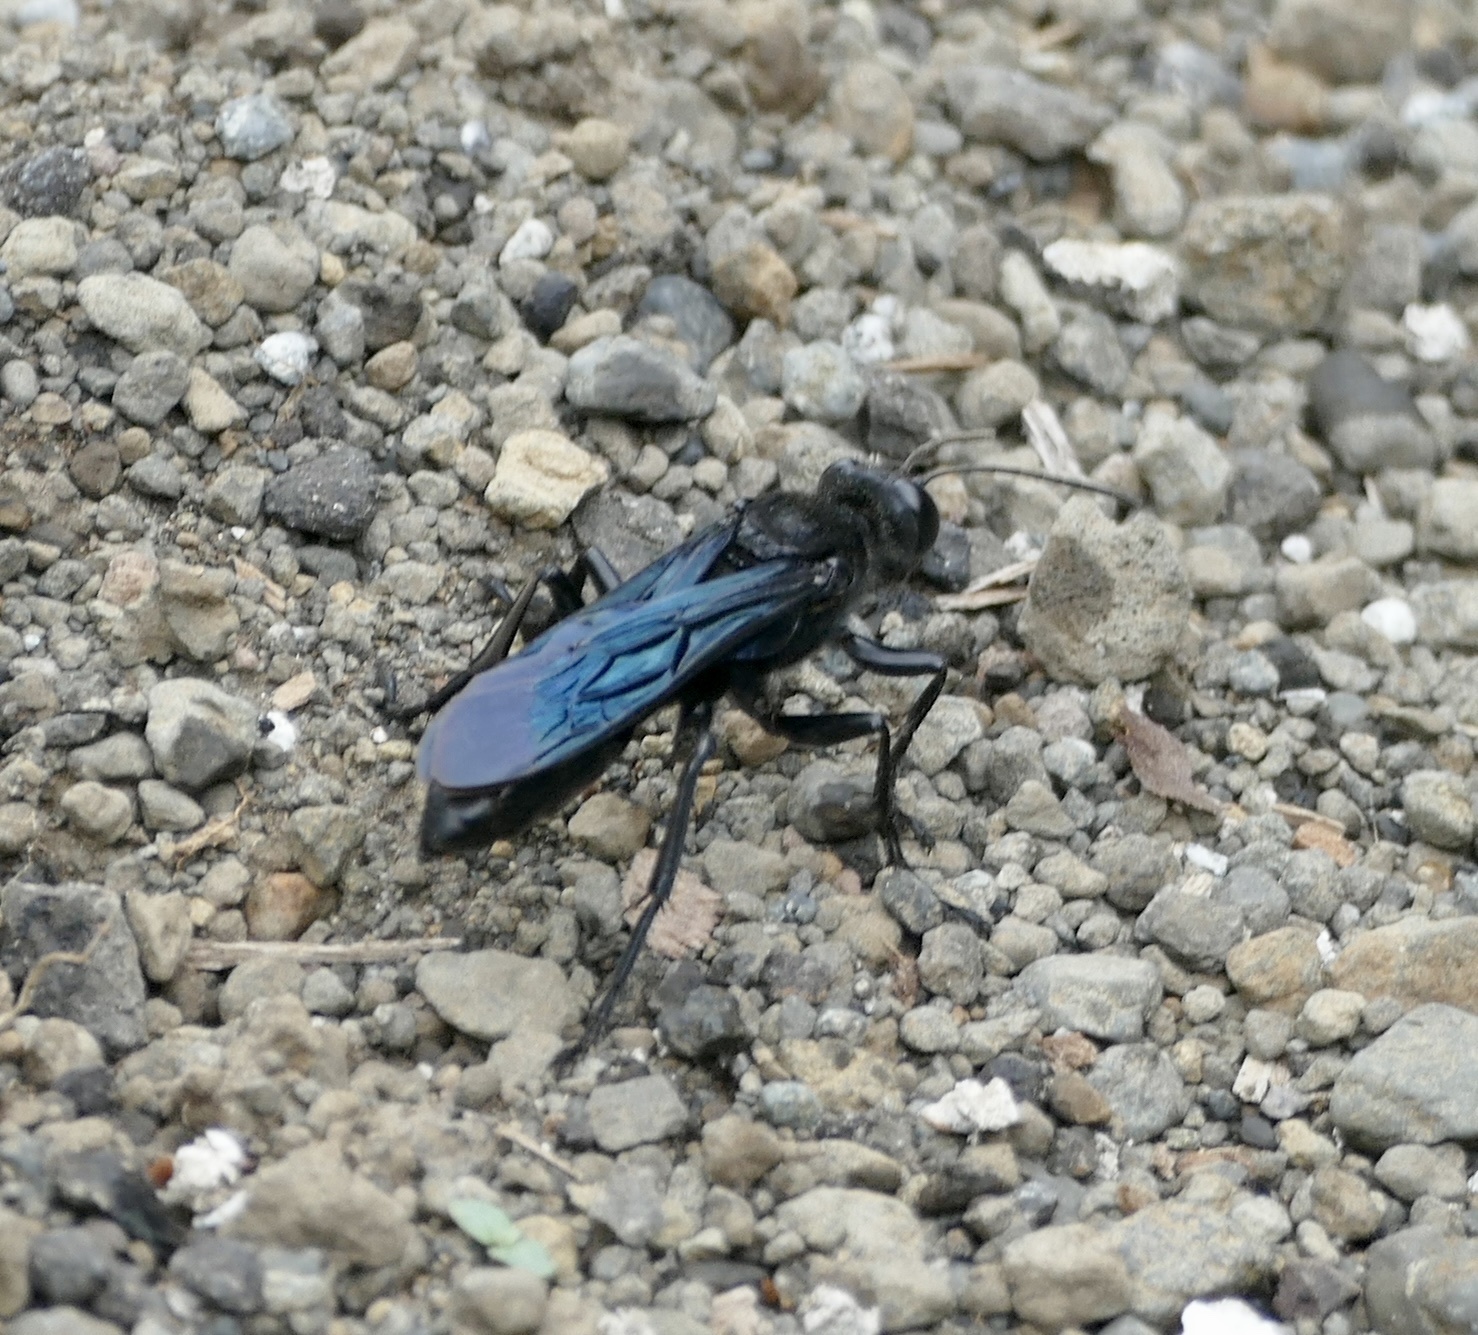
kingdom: Animalia
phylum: Arthropoda
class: Insecta
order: Hymenoptera
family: Sphecidae
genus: Sphex
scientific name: Sphex madasummae
